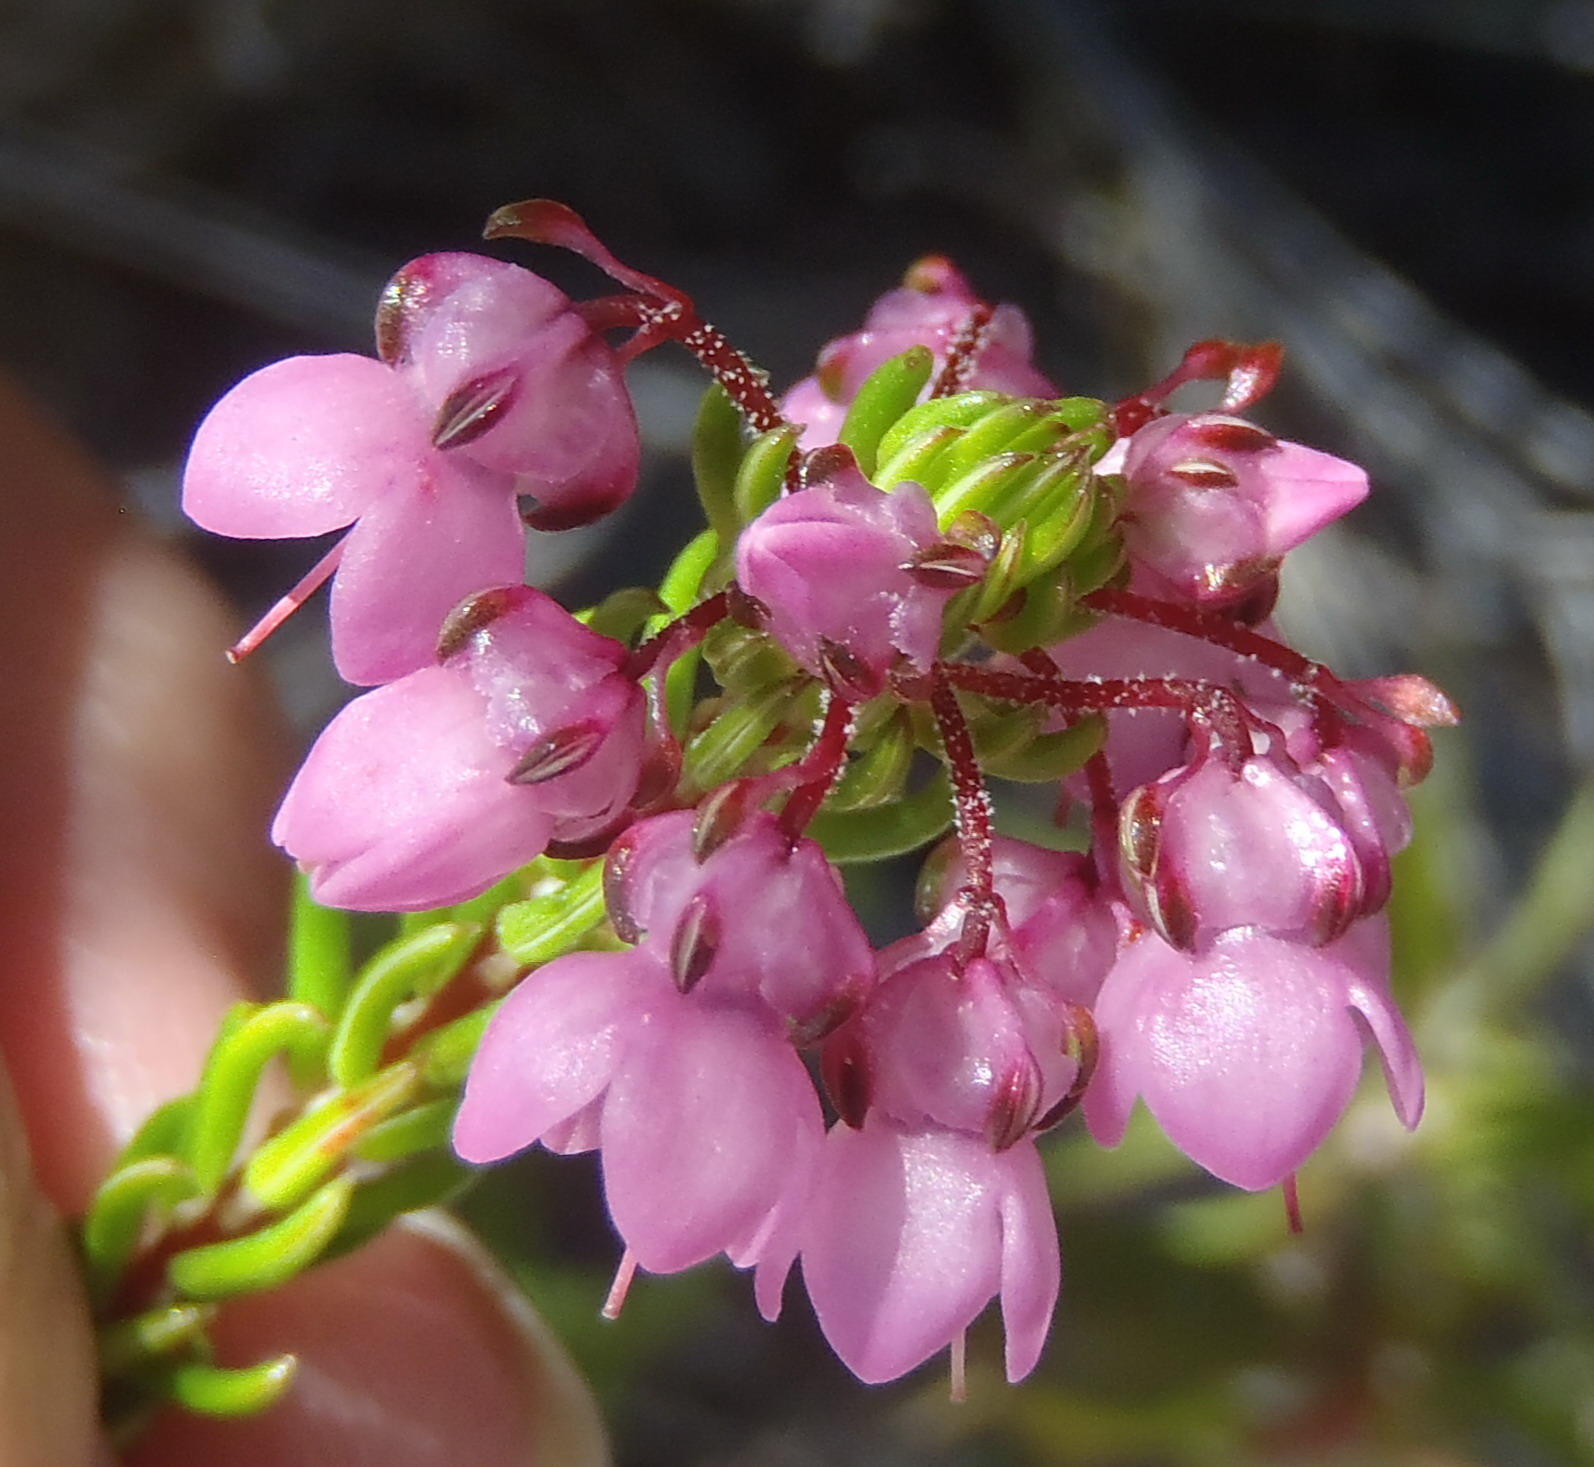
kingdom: Plantae
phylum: Tracheophyta
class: Magnoliopsida
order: Ericales
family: Ericaceae
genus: Erica
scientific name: Erica seriphiifolia
